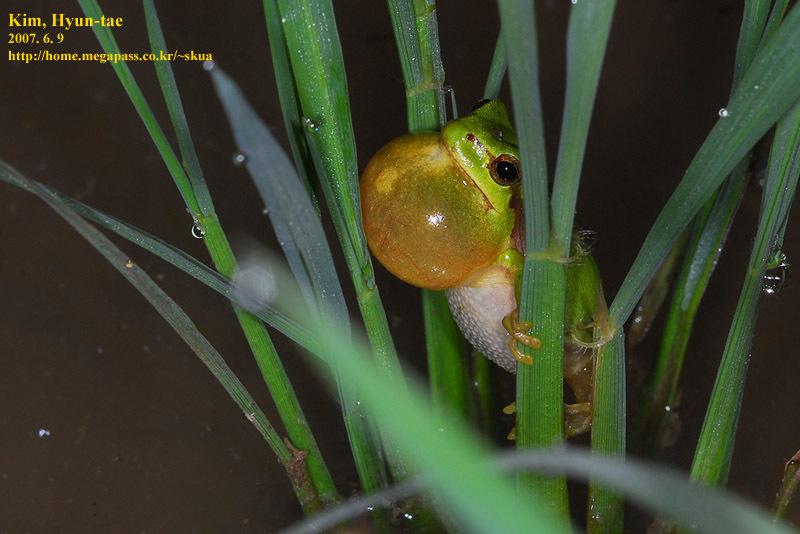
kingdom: Animalia
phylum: Chordata
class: Amphibia
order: Anura
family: Hylidae
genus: Dryophytes
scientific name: Dryophytes immaculatus
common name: North china treefrog
